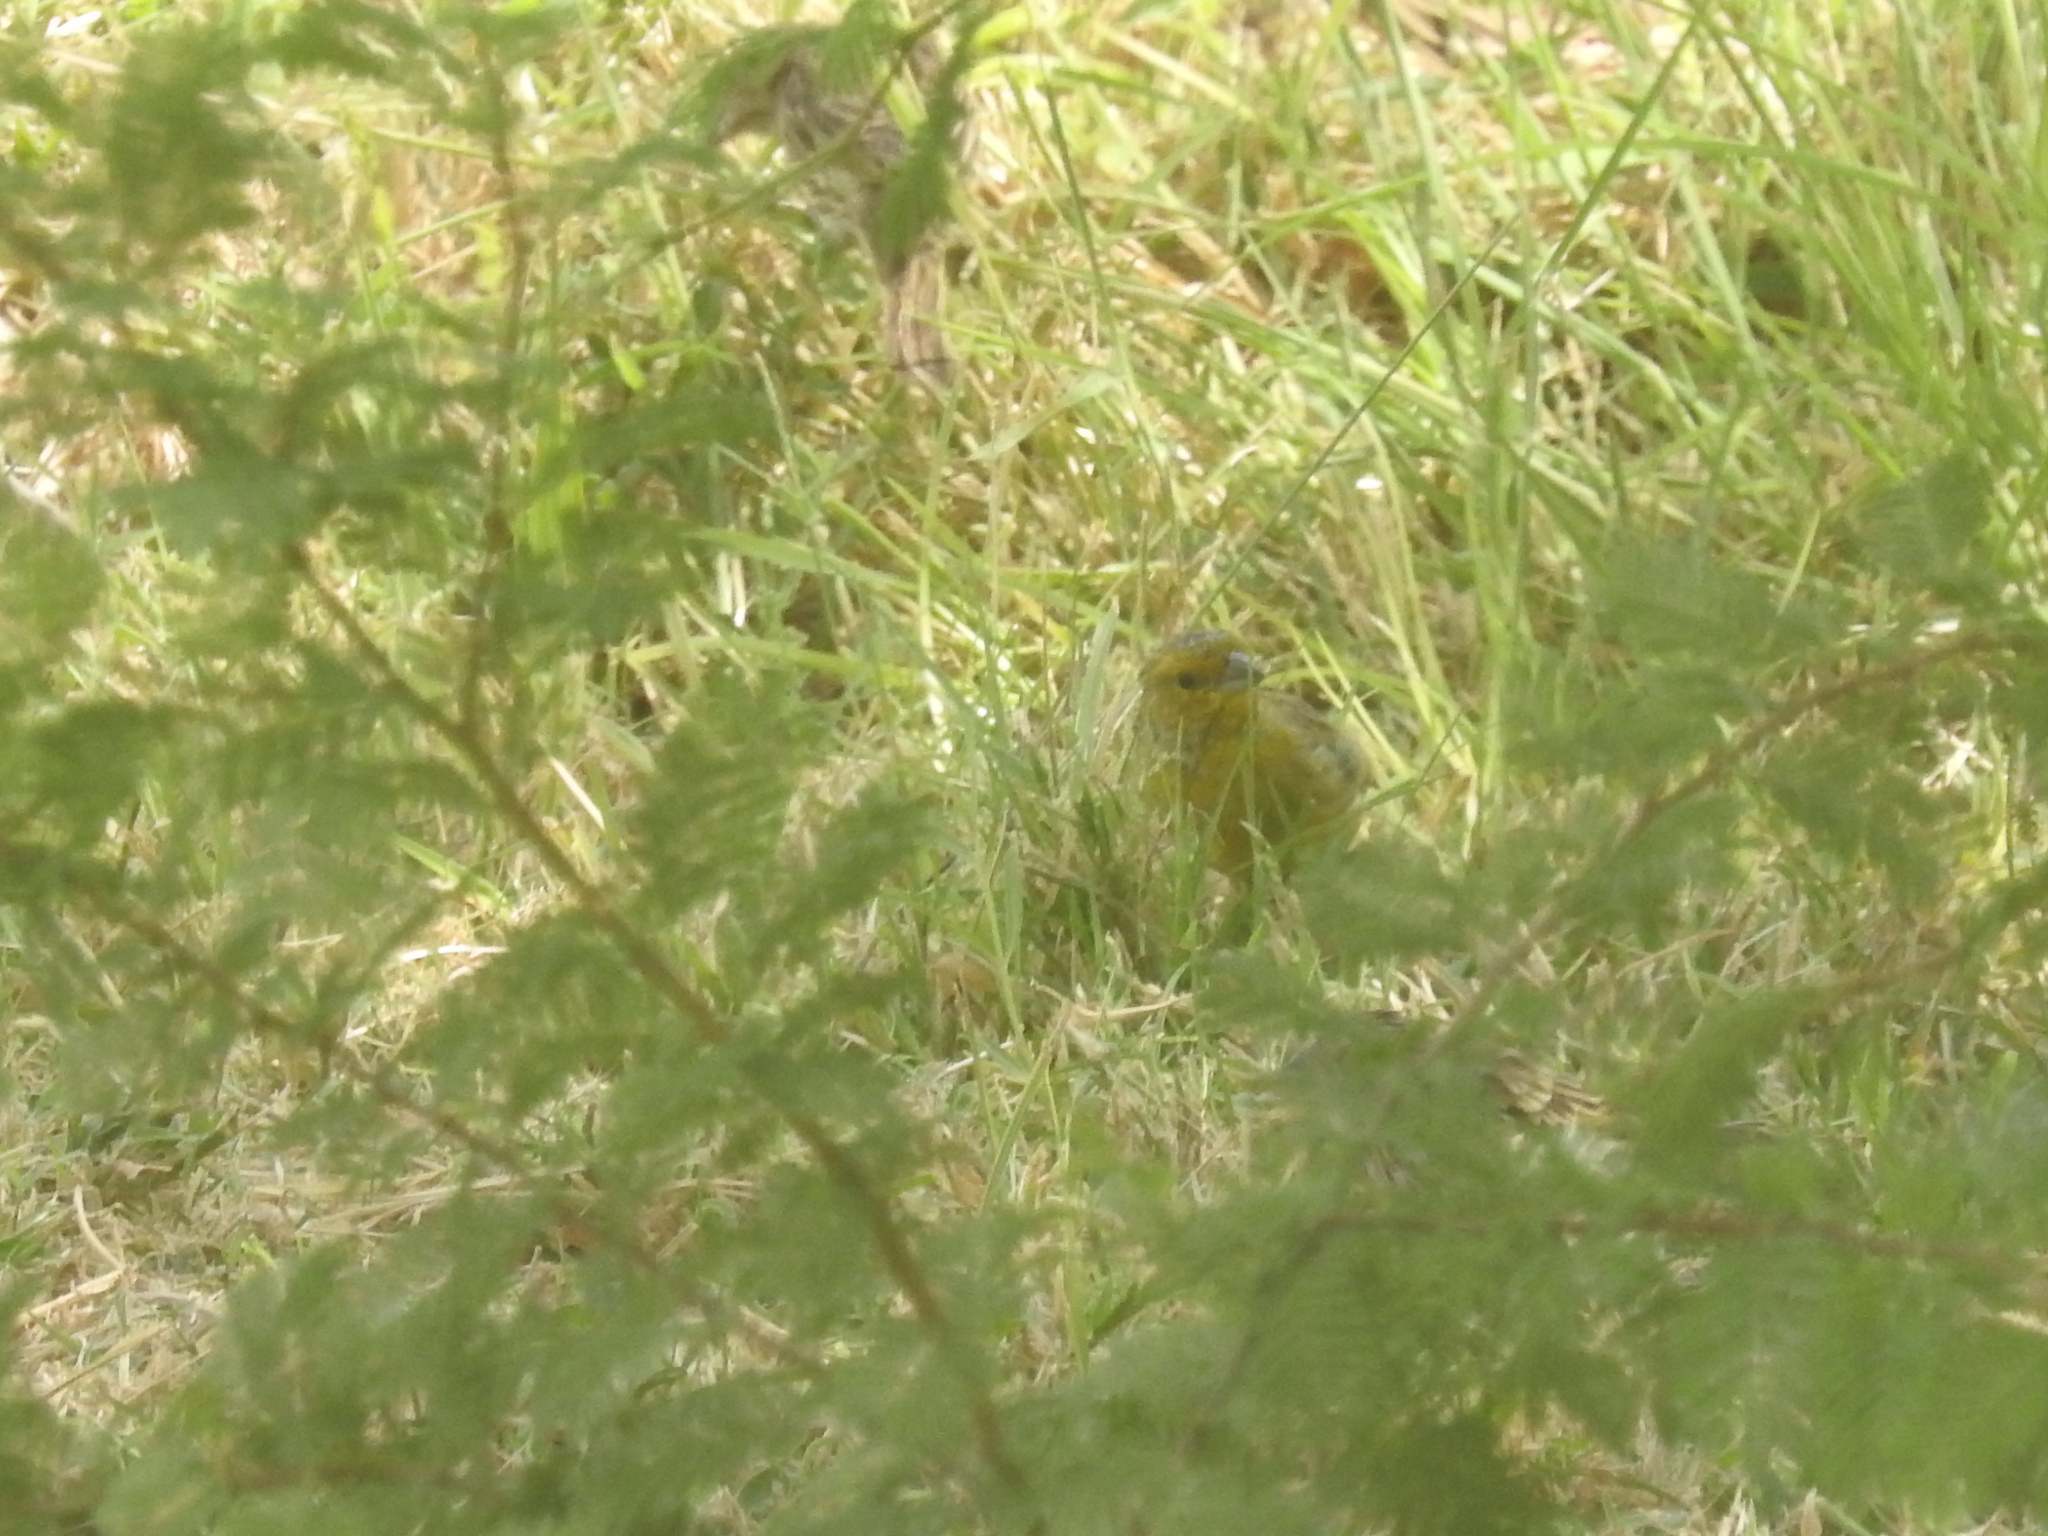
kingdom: Animalia
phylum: Chordata
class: Aves
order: Passeriformes
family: Thraupidae
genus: Sicalis
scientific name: Sicalis flaveola
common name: Saffron finch
